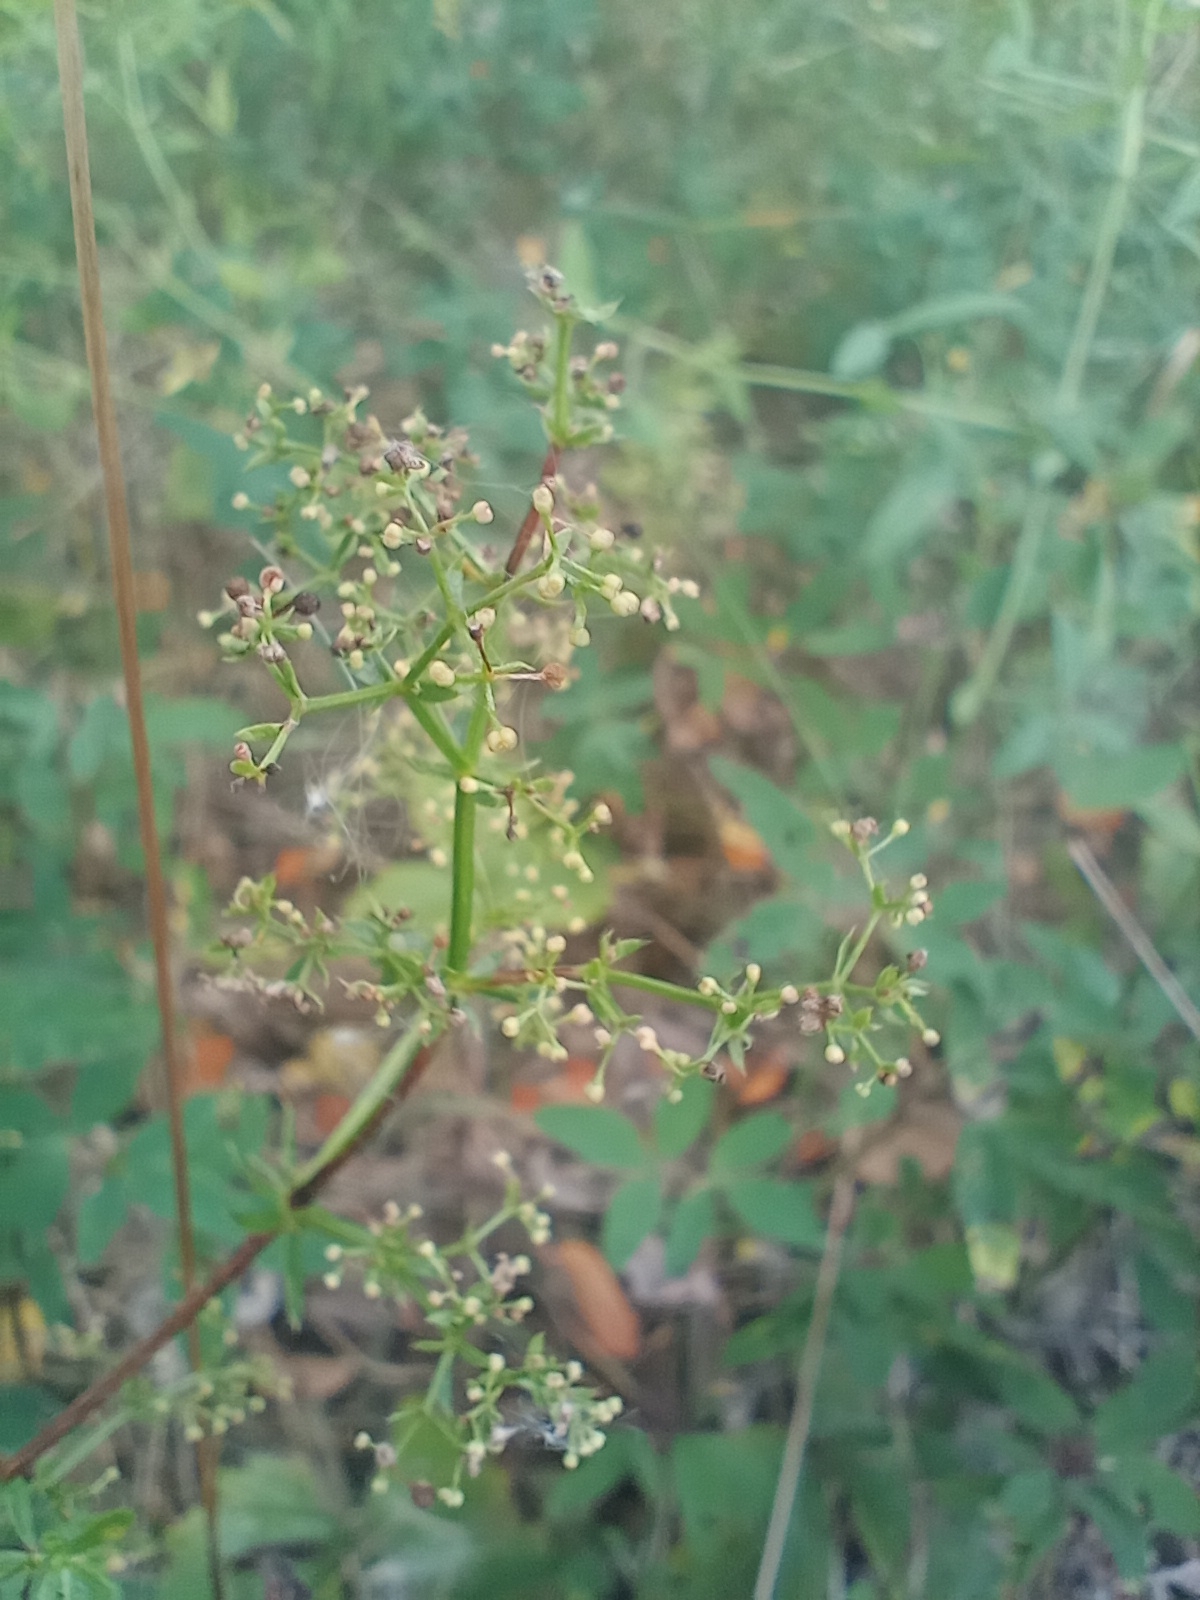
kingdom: Plantae
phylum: Tracheophyta
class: Magnoliopsida
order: Gentianales
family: Rubiaceae
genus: Galium
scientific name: Galium mollugo
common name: Hedge bedstraw
